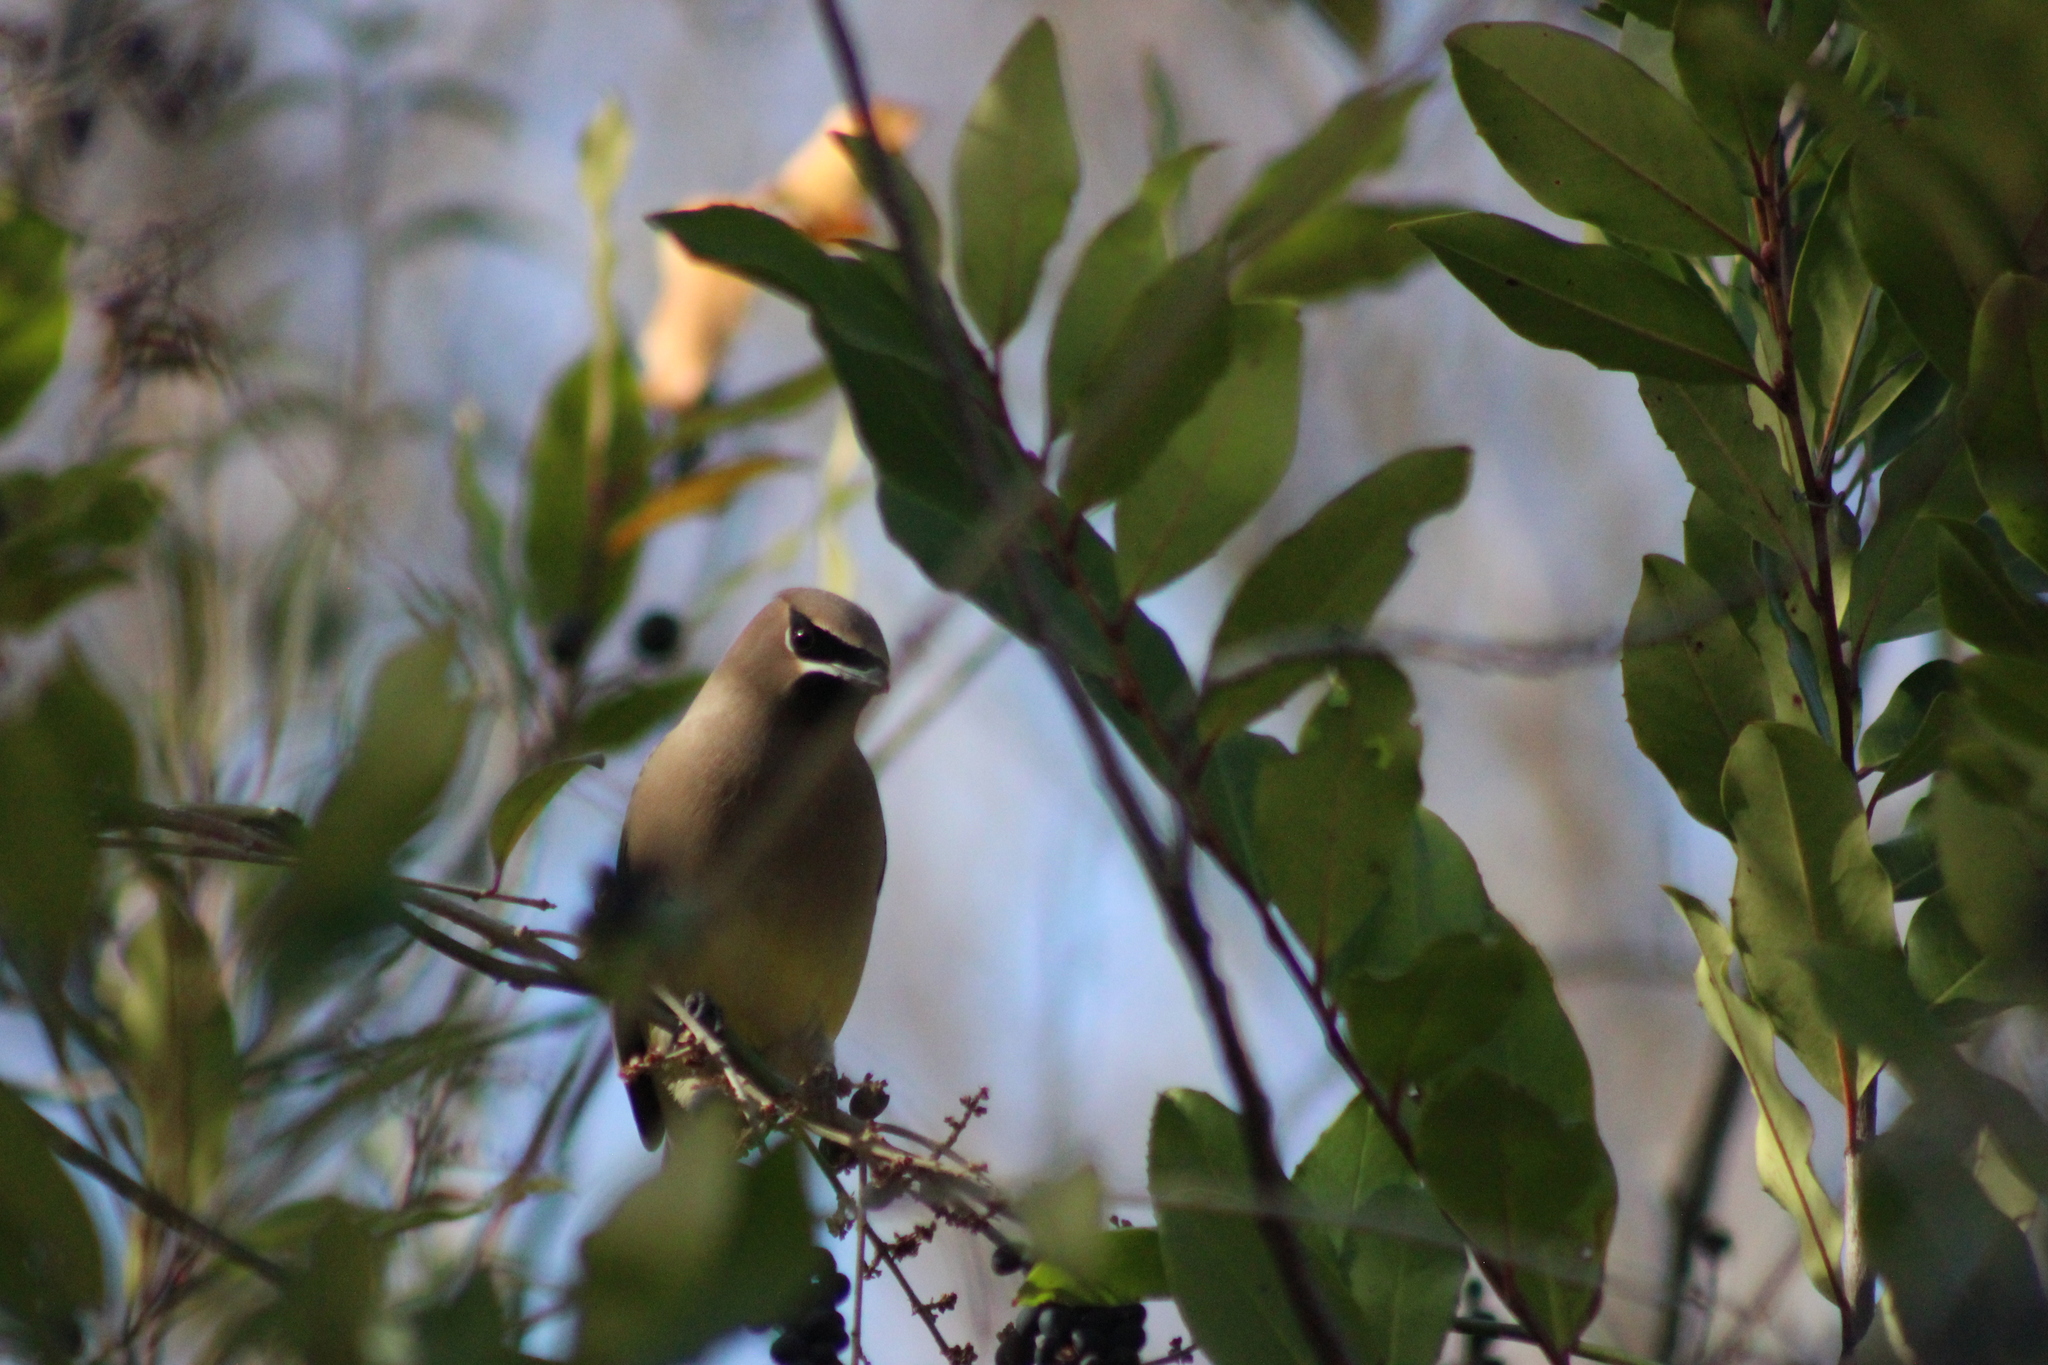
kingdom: Animalia
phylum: Chordata
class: Aves
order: Passeriformes
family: Bombycillidae
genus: Bombycilla
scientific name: Bombycilla cedrorum
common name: Cedar waxwing
